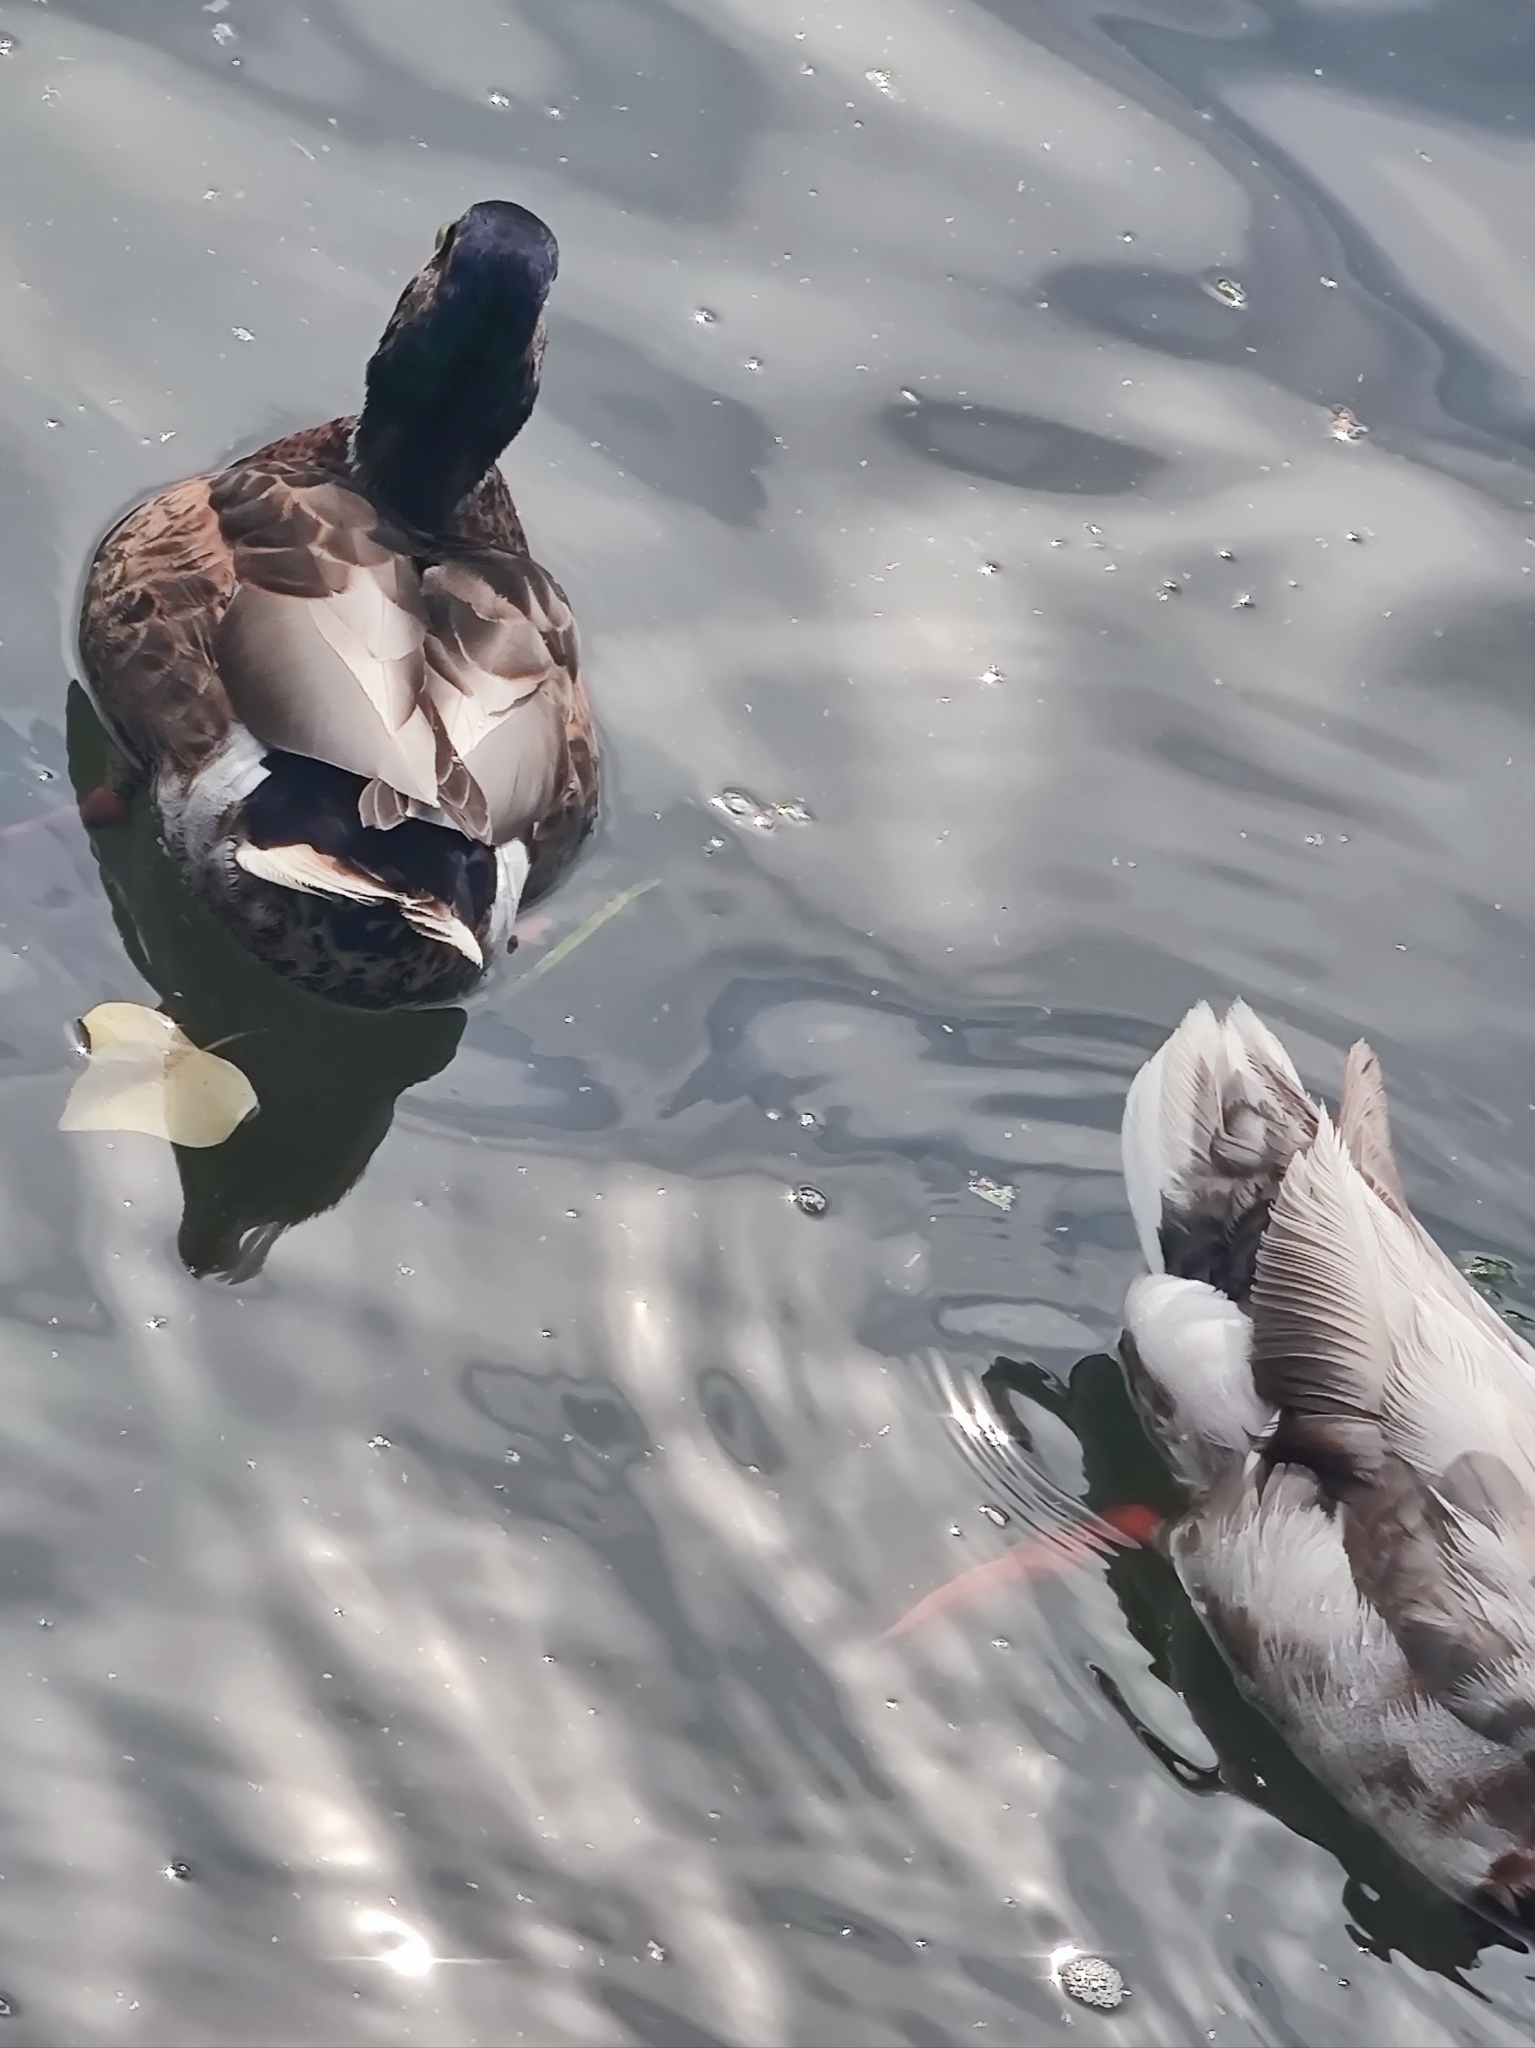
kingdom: Animalia
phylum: Chordata
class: Aves
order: Anseriformes
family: Anatidae
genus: Anas
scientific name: Anas platyrhynchos
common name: Mallard
